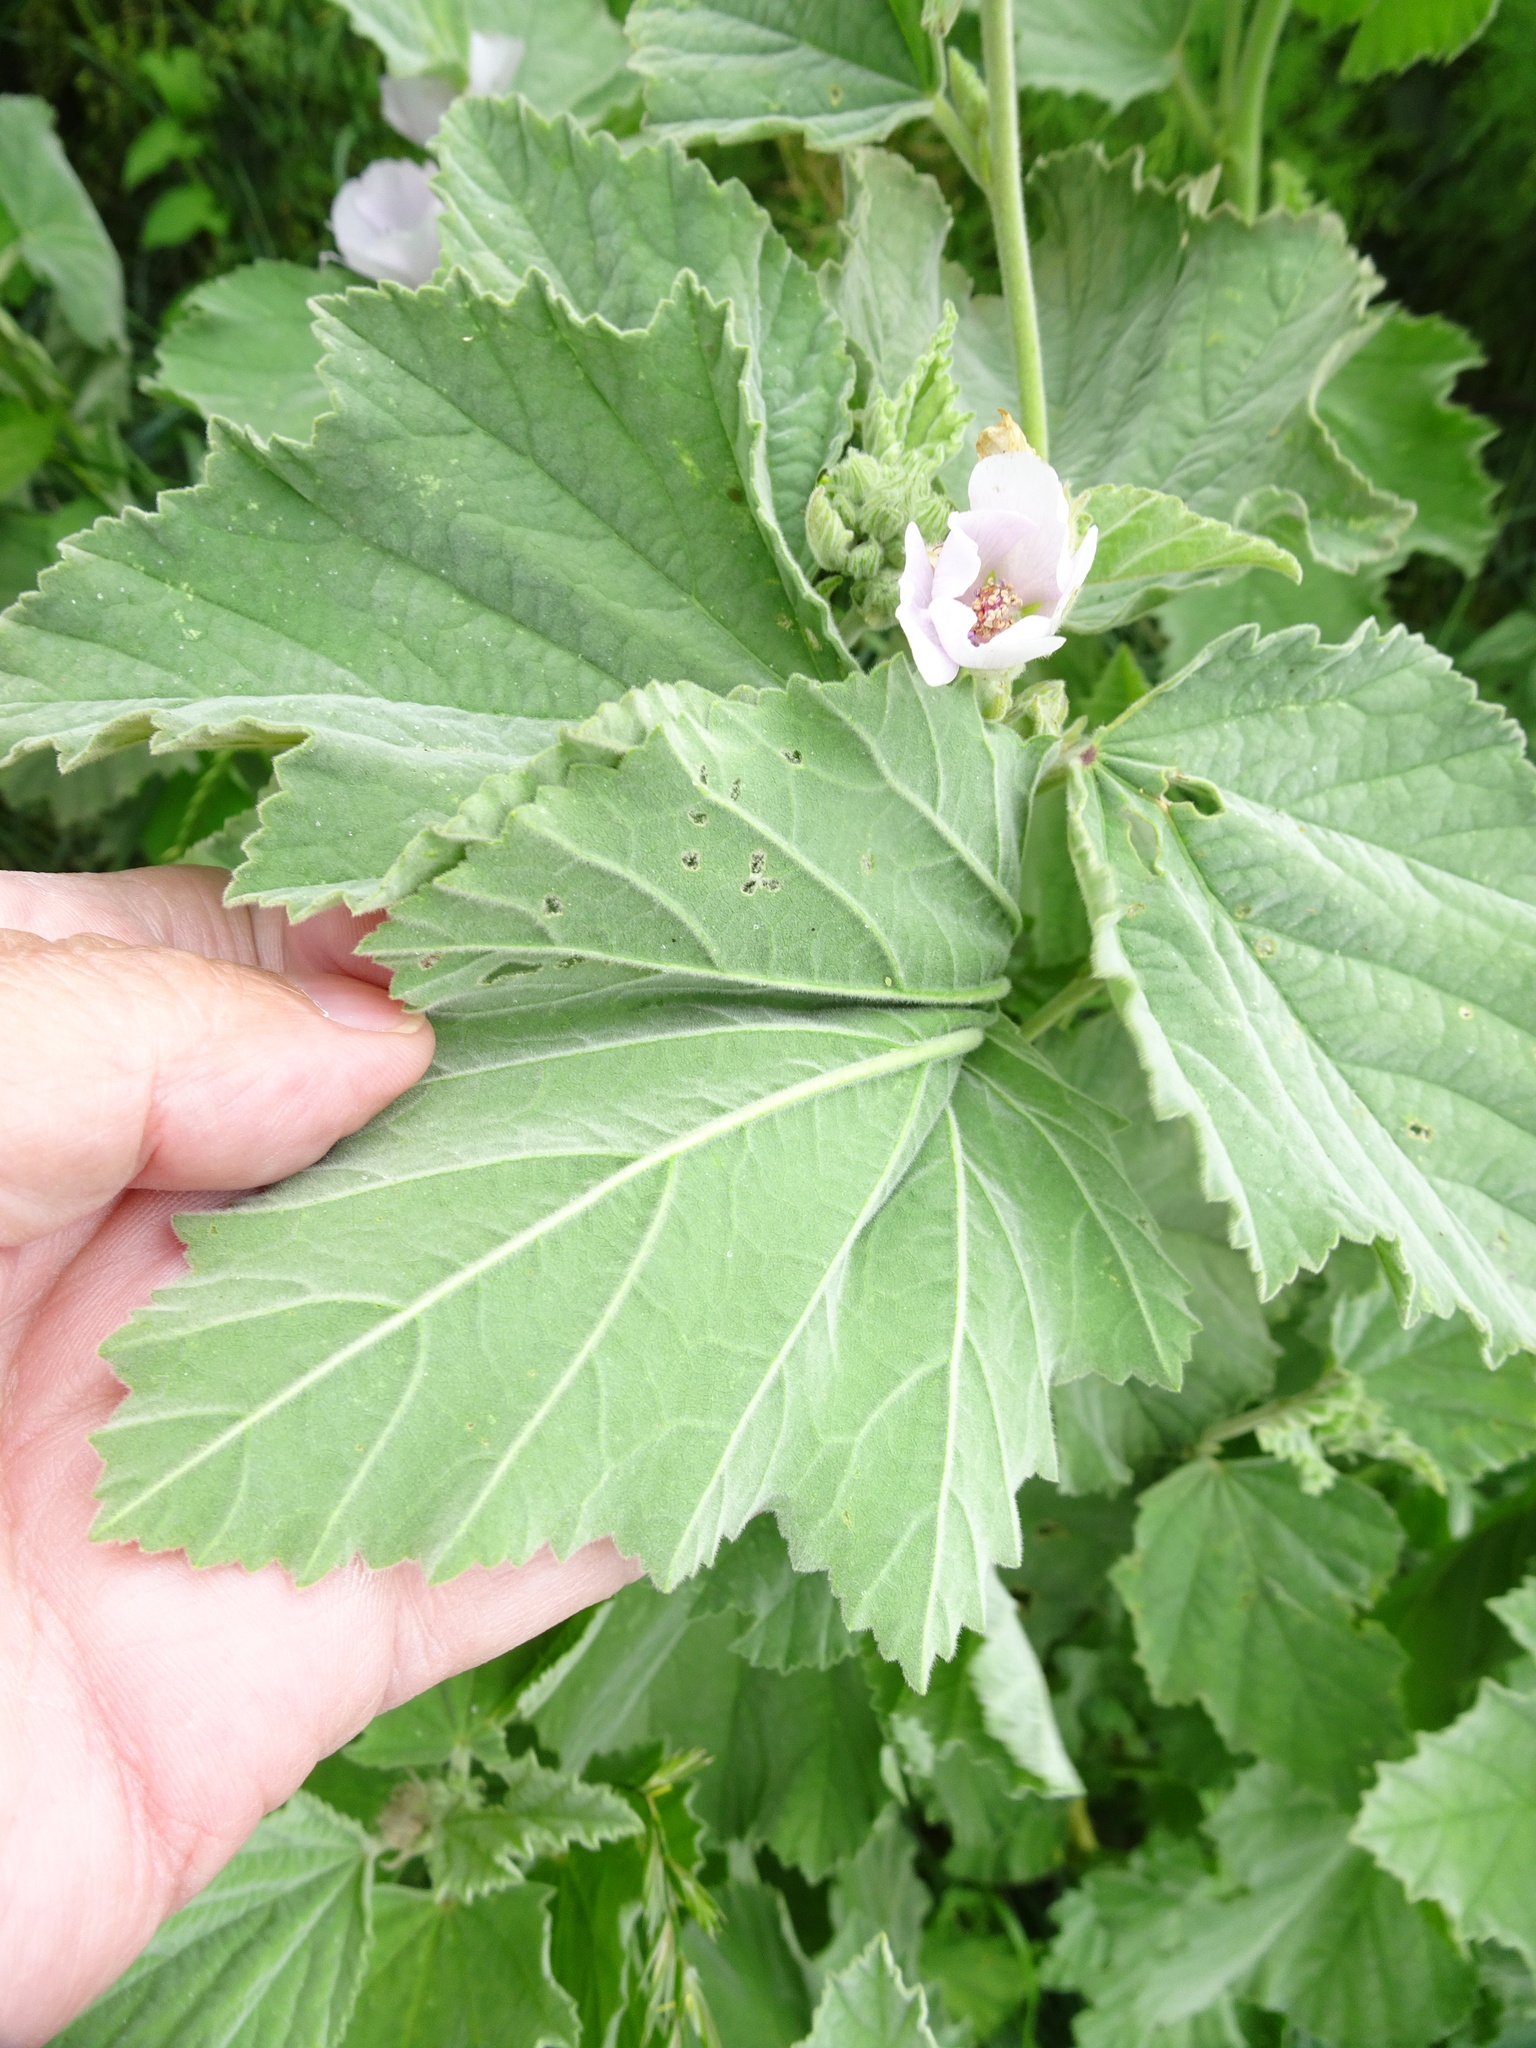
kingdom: Plantae
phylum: Tracheophyta
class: Magnoliopsida
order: Malvales
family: Malvaceae
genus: Althaea
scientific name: Althaea officinalis
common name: Marsh-mallow
